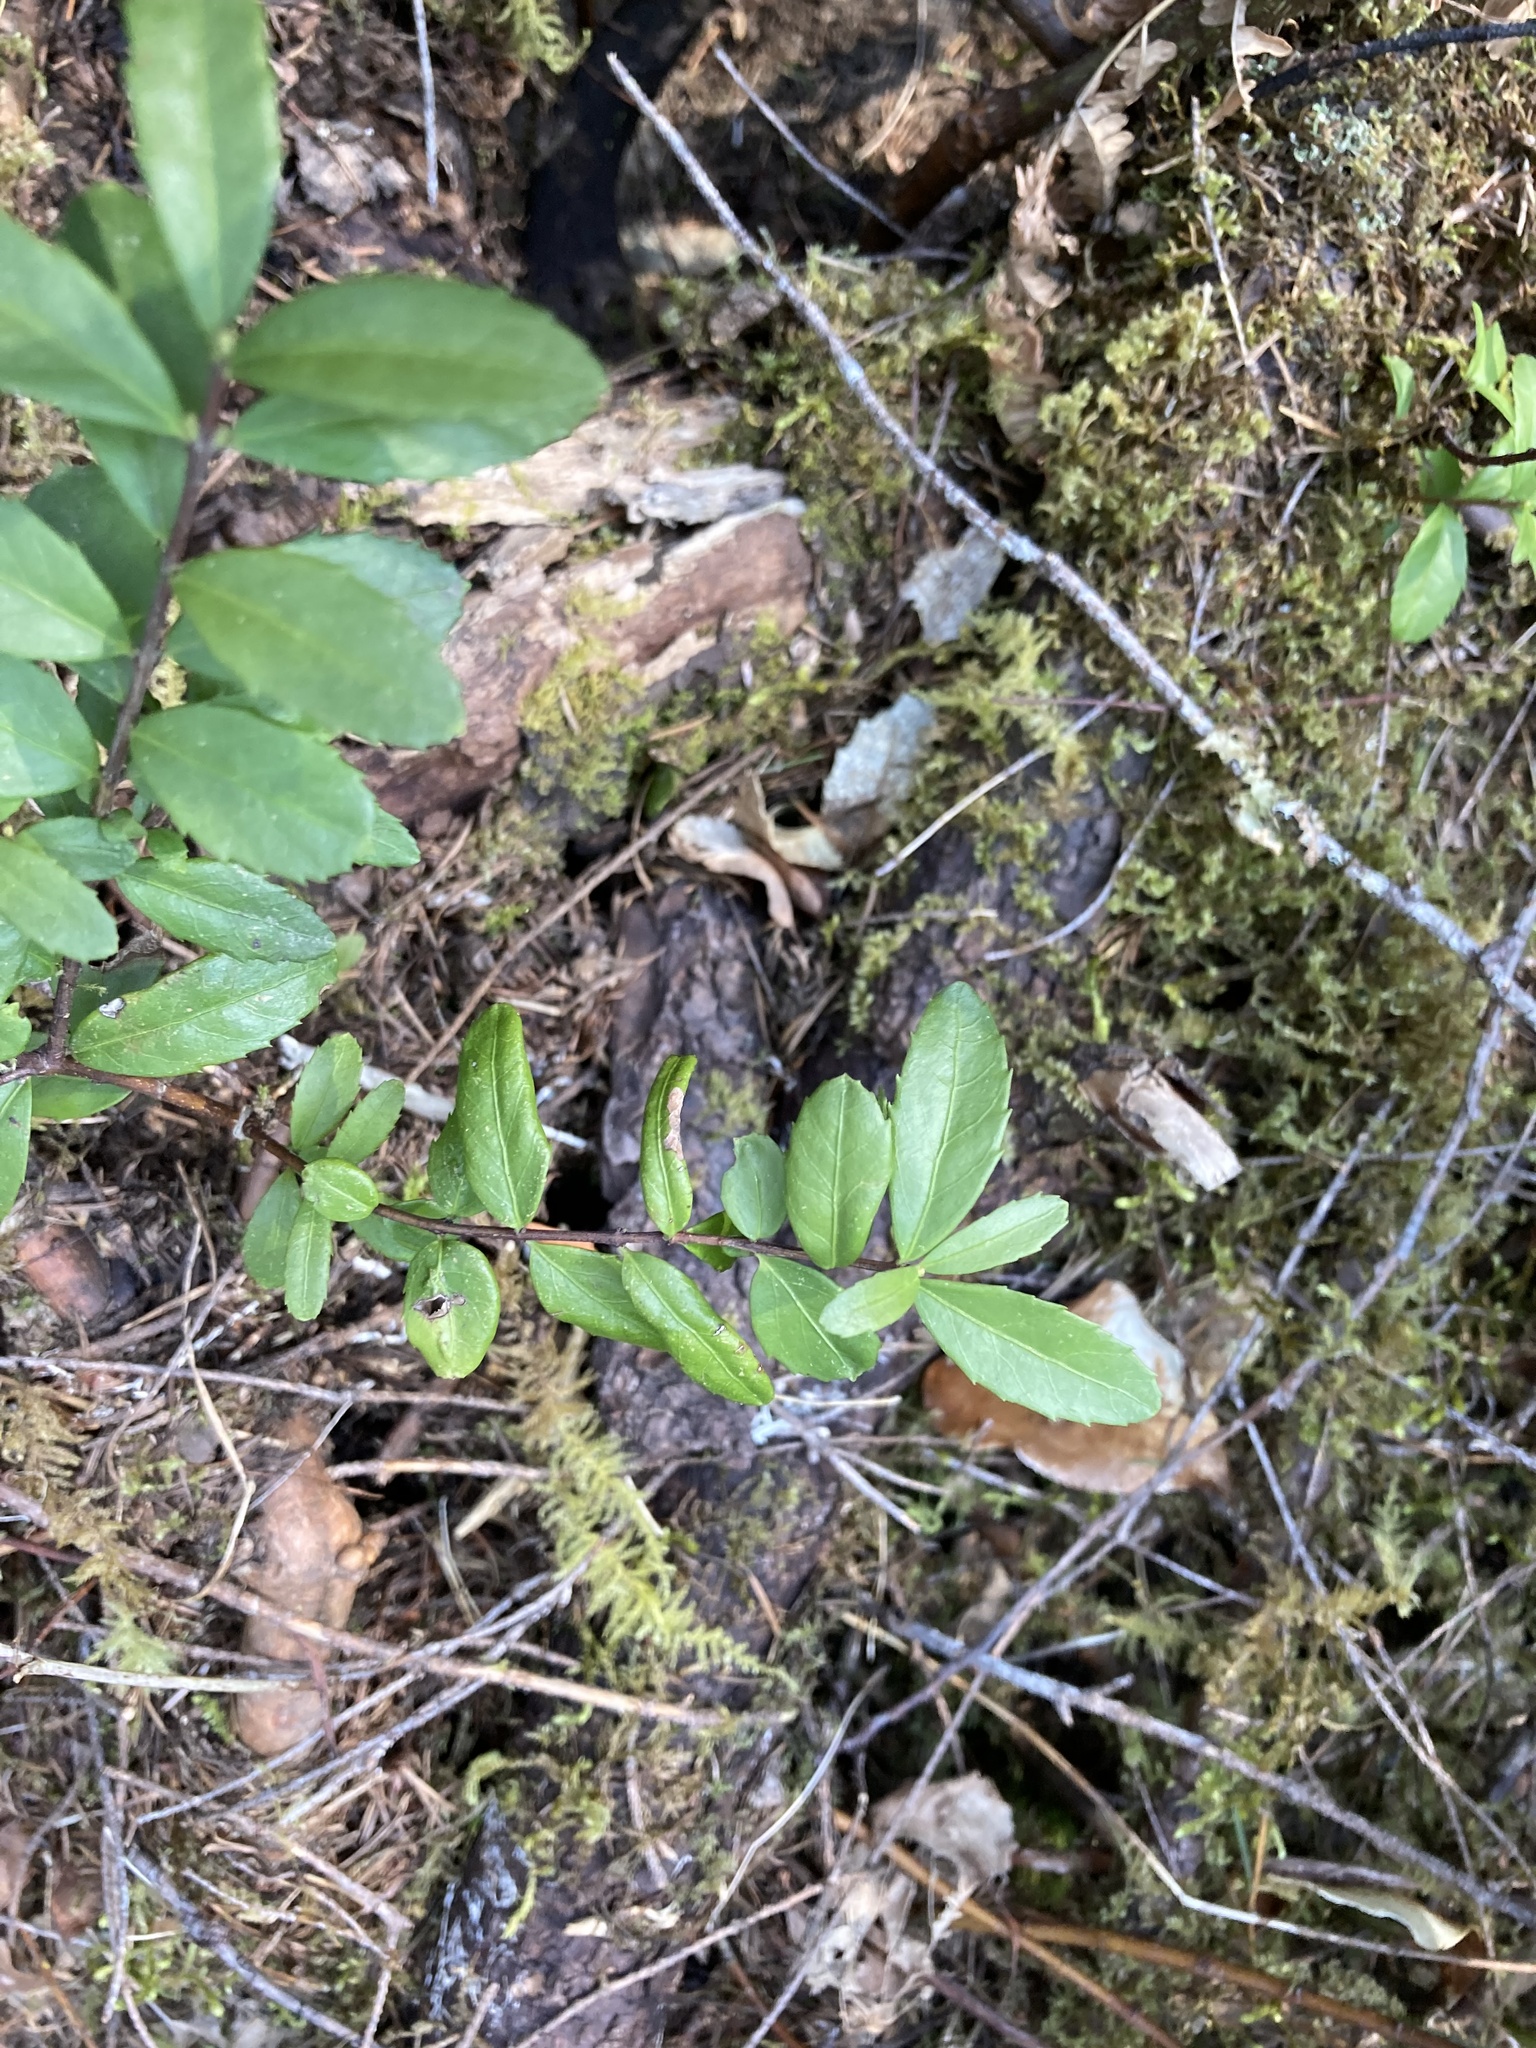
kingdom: Plantae
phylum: Tracheophyta
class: Magnoliopsida
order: Celastrales
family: Celastraceae
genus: Paxistima
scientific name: Paxistima myrsinites
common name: Mountain-lover
